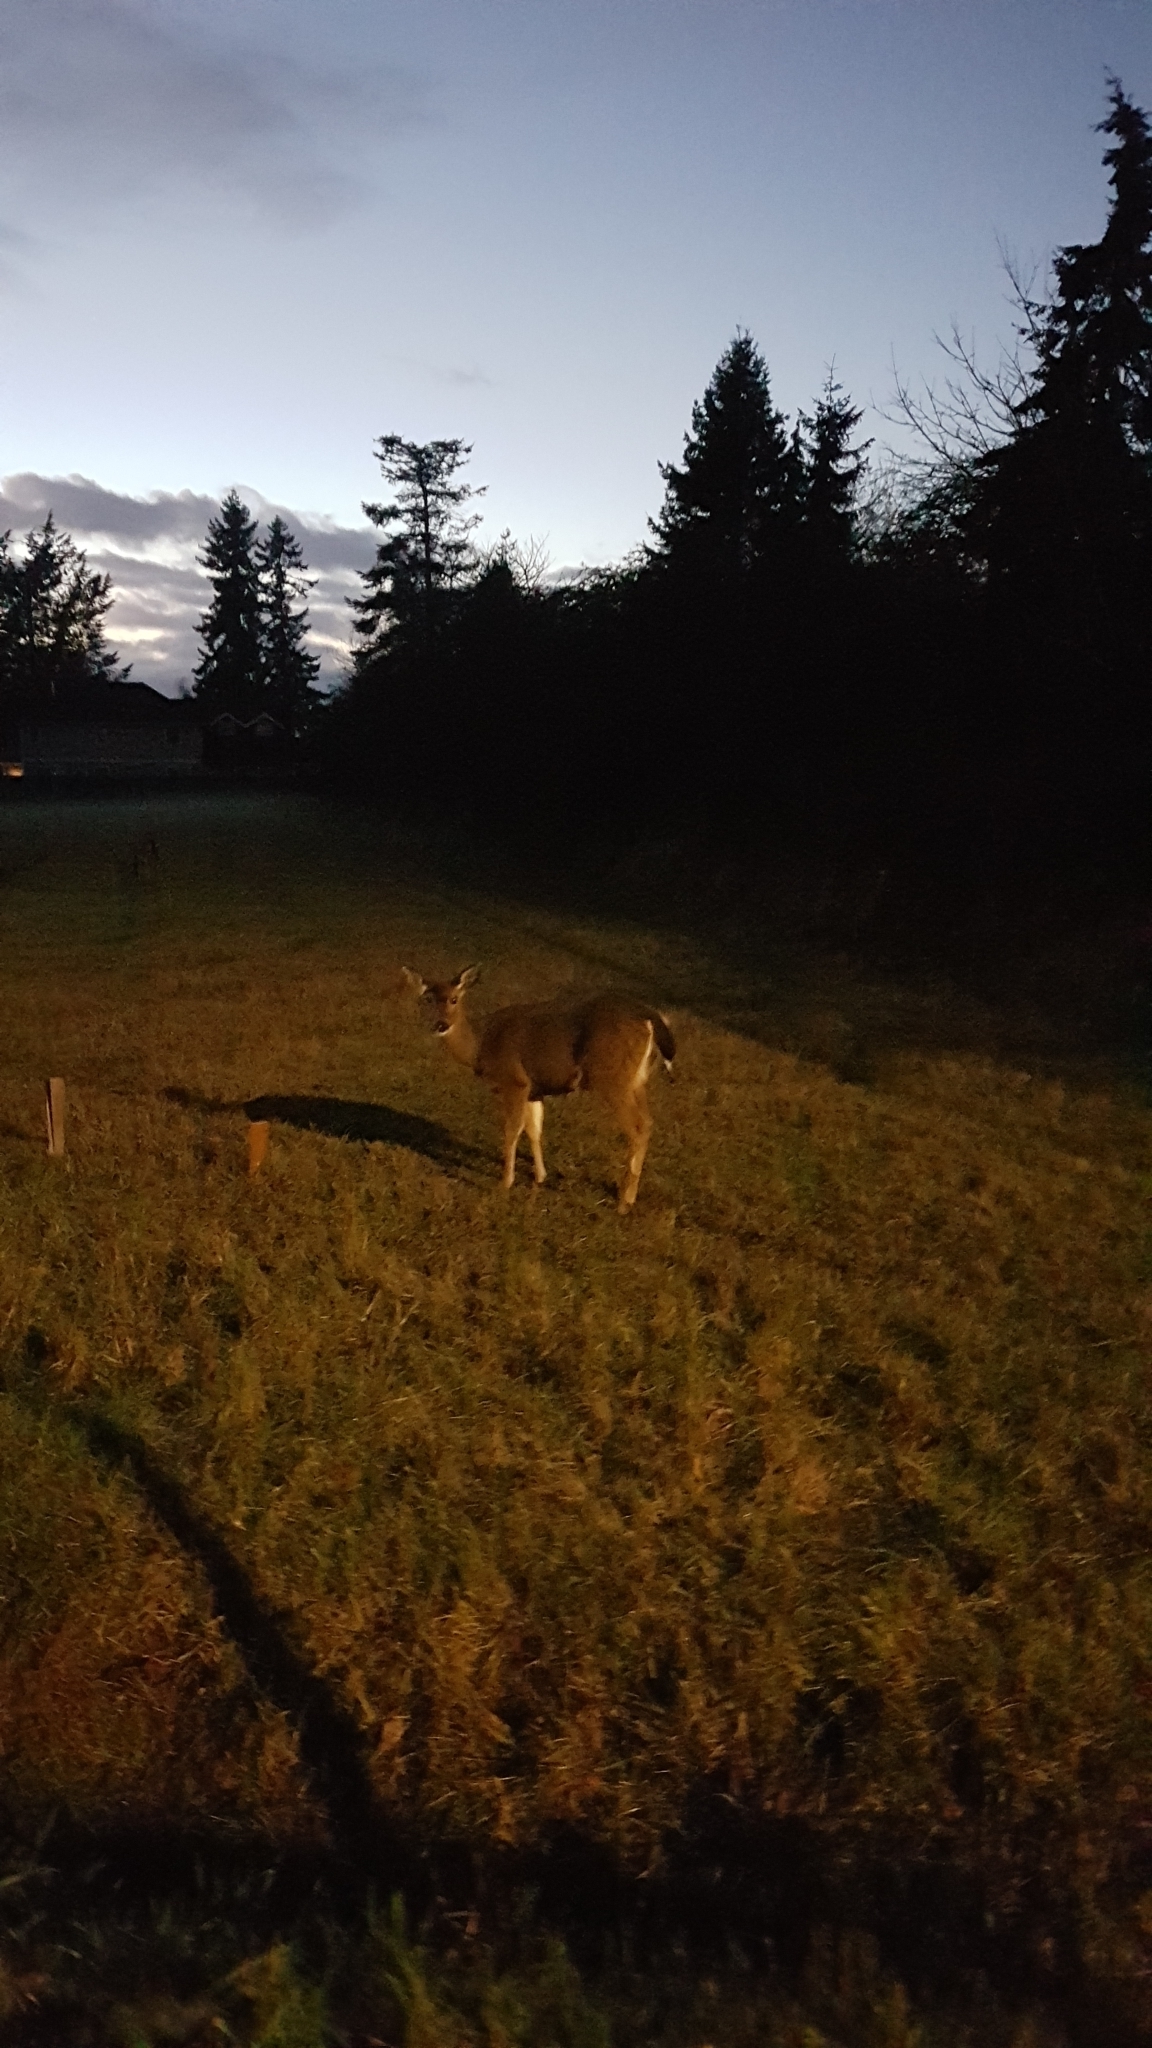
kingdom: Animalia
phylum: Chordata
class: Mammalia
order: Artiodactyla
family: Cervidae
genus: Odocoileus
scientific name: Odocoileus hemionus
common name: Mule deer
